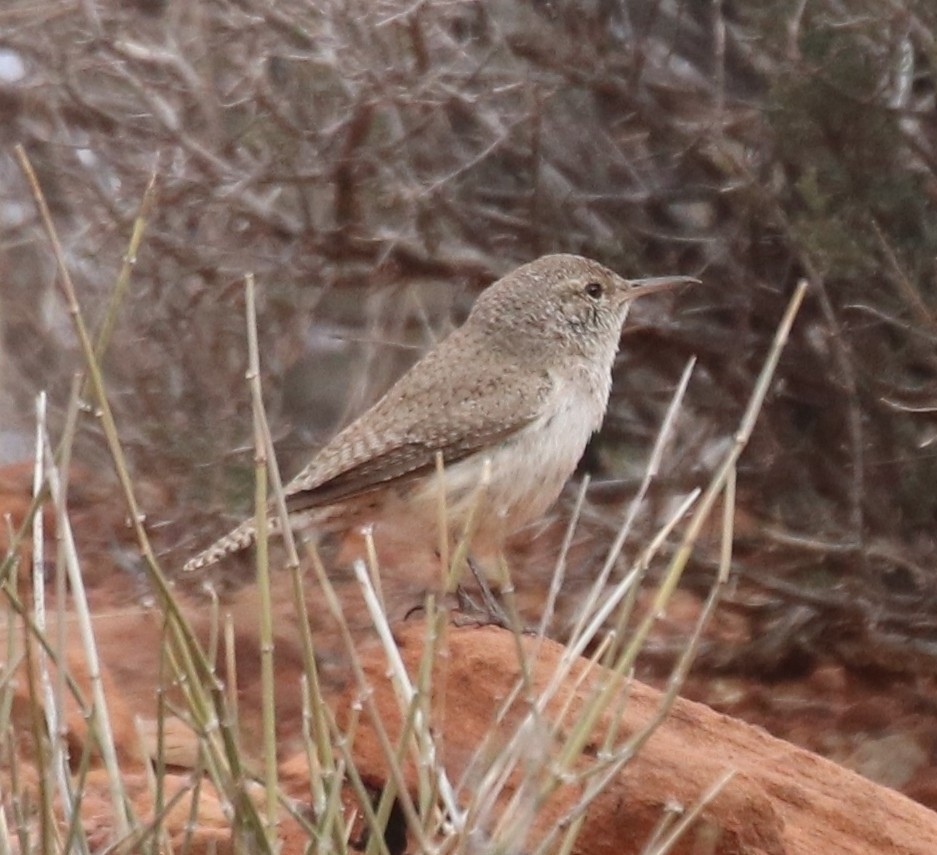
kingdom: Animalia
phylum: Chordata
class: Aves
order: Passeriformes
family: Troglodytidae
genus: Salpinctes
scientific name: Salpinctes obsoletus
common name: Rock wren
